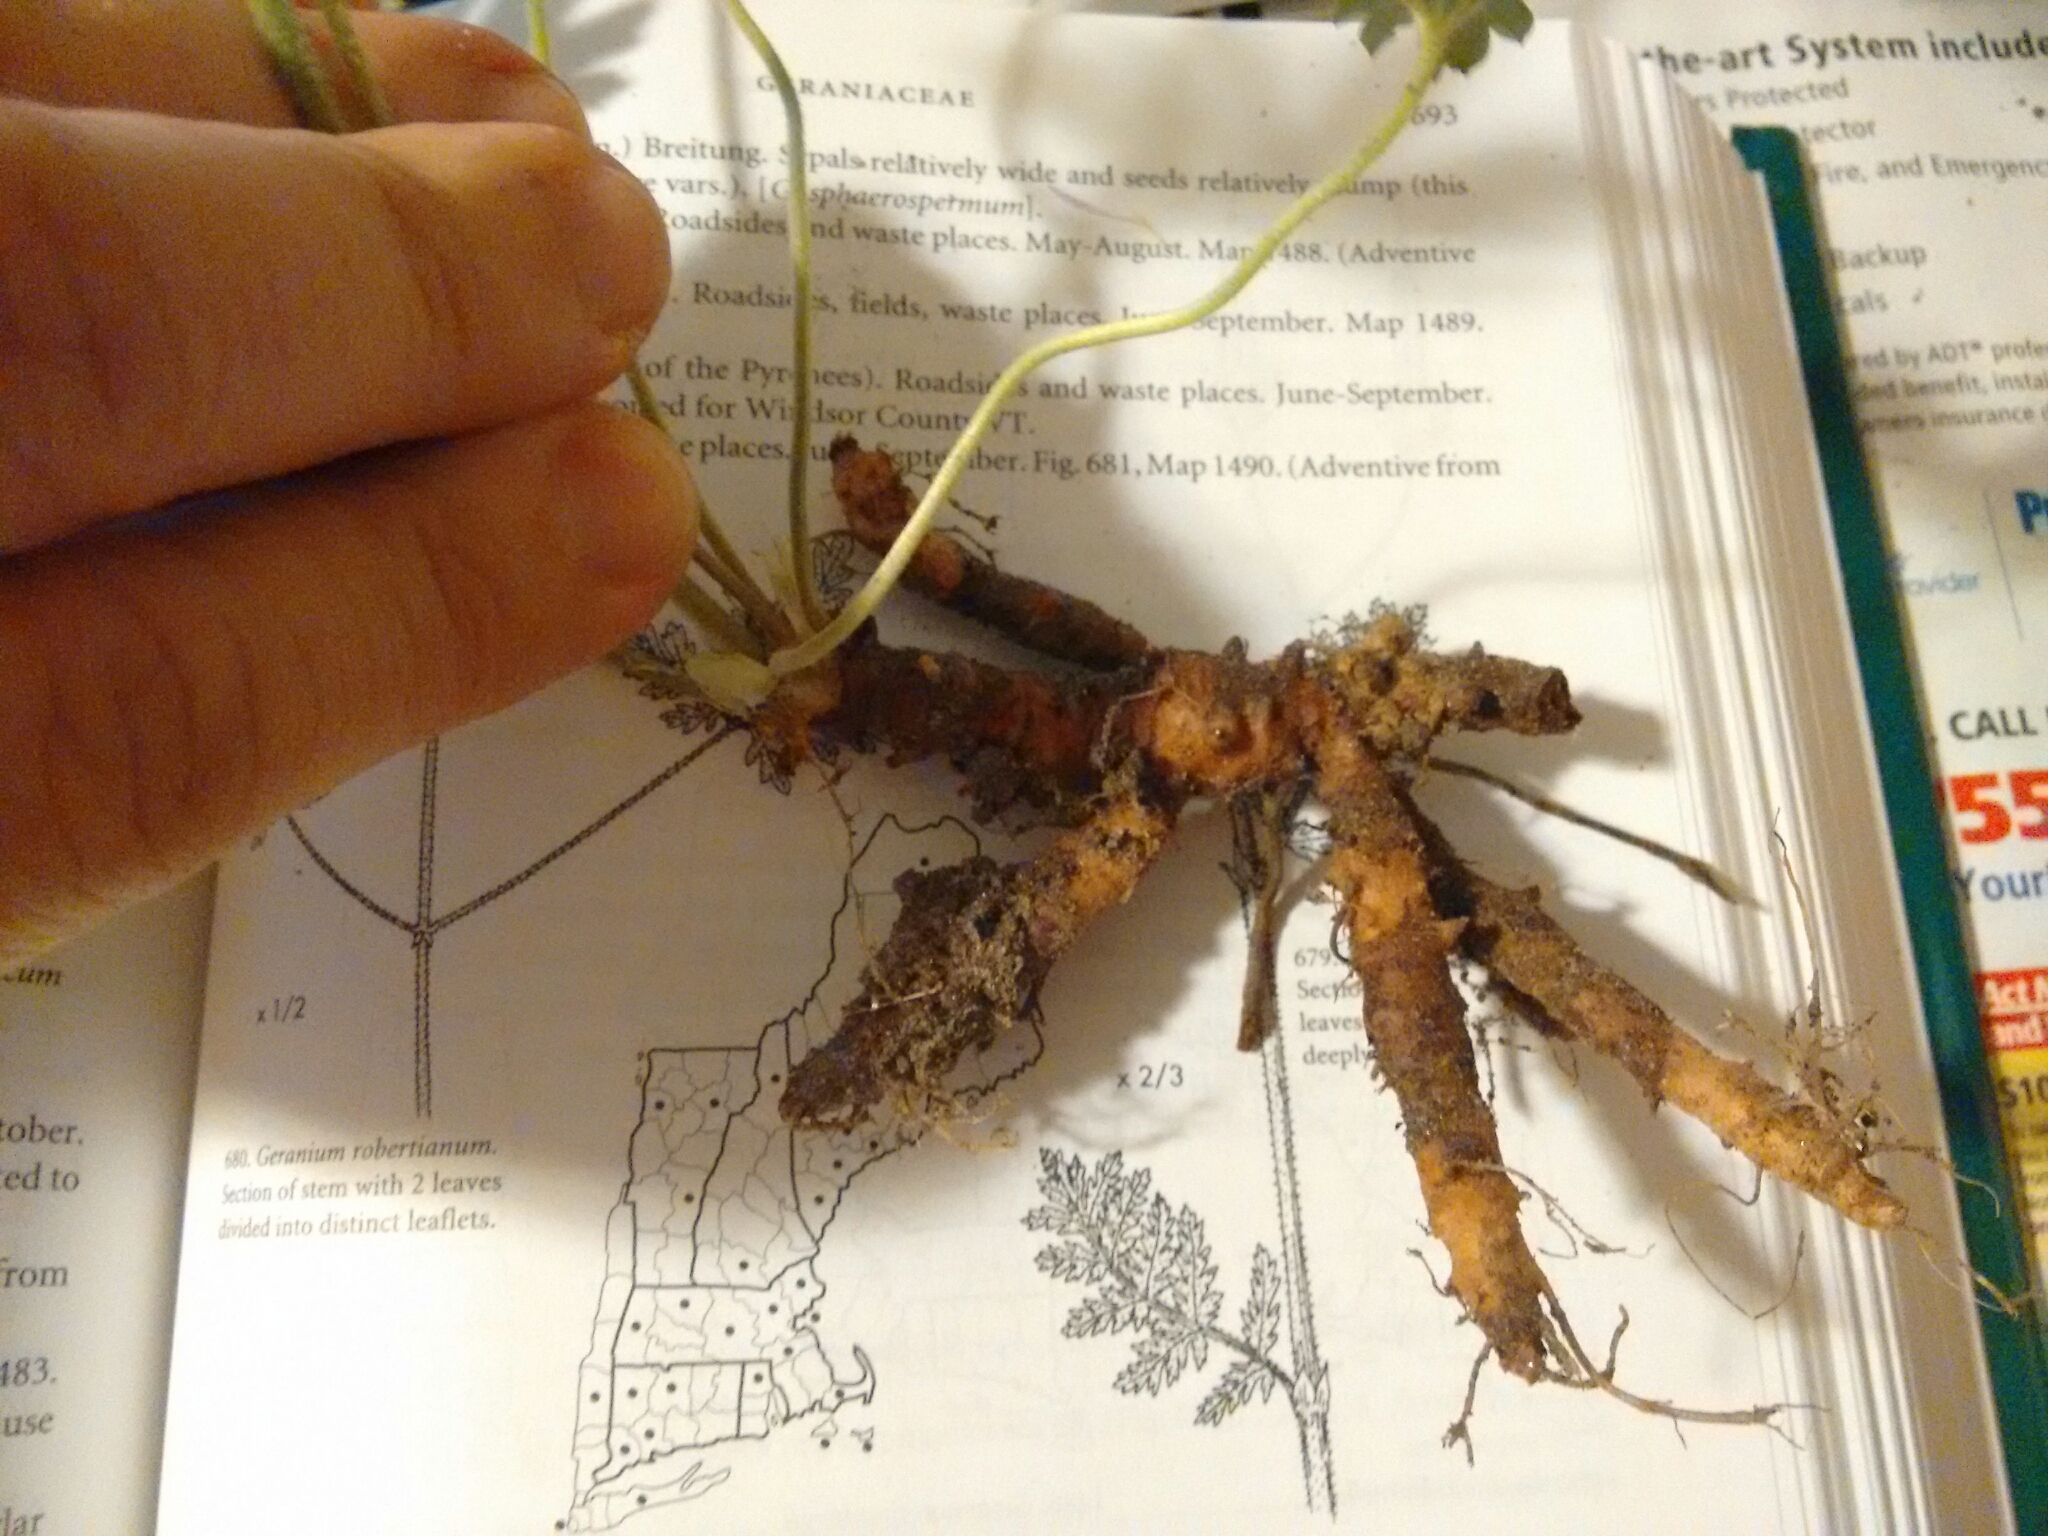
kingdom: Plantae
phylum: Tracheophyta
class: Magnoliopsida
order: Geraniales
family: Geraniaceae
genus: Geranium
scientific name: Geranium maculatum
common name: Spotted geranium
